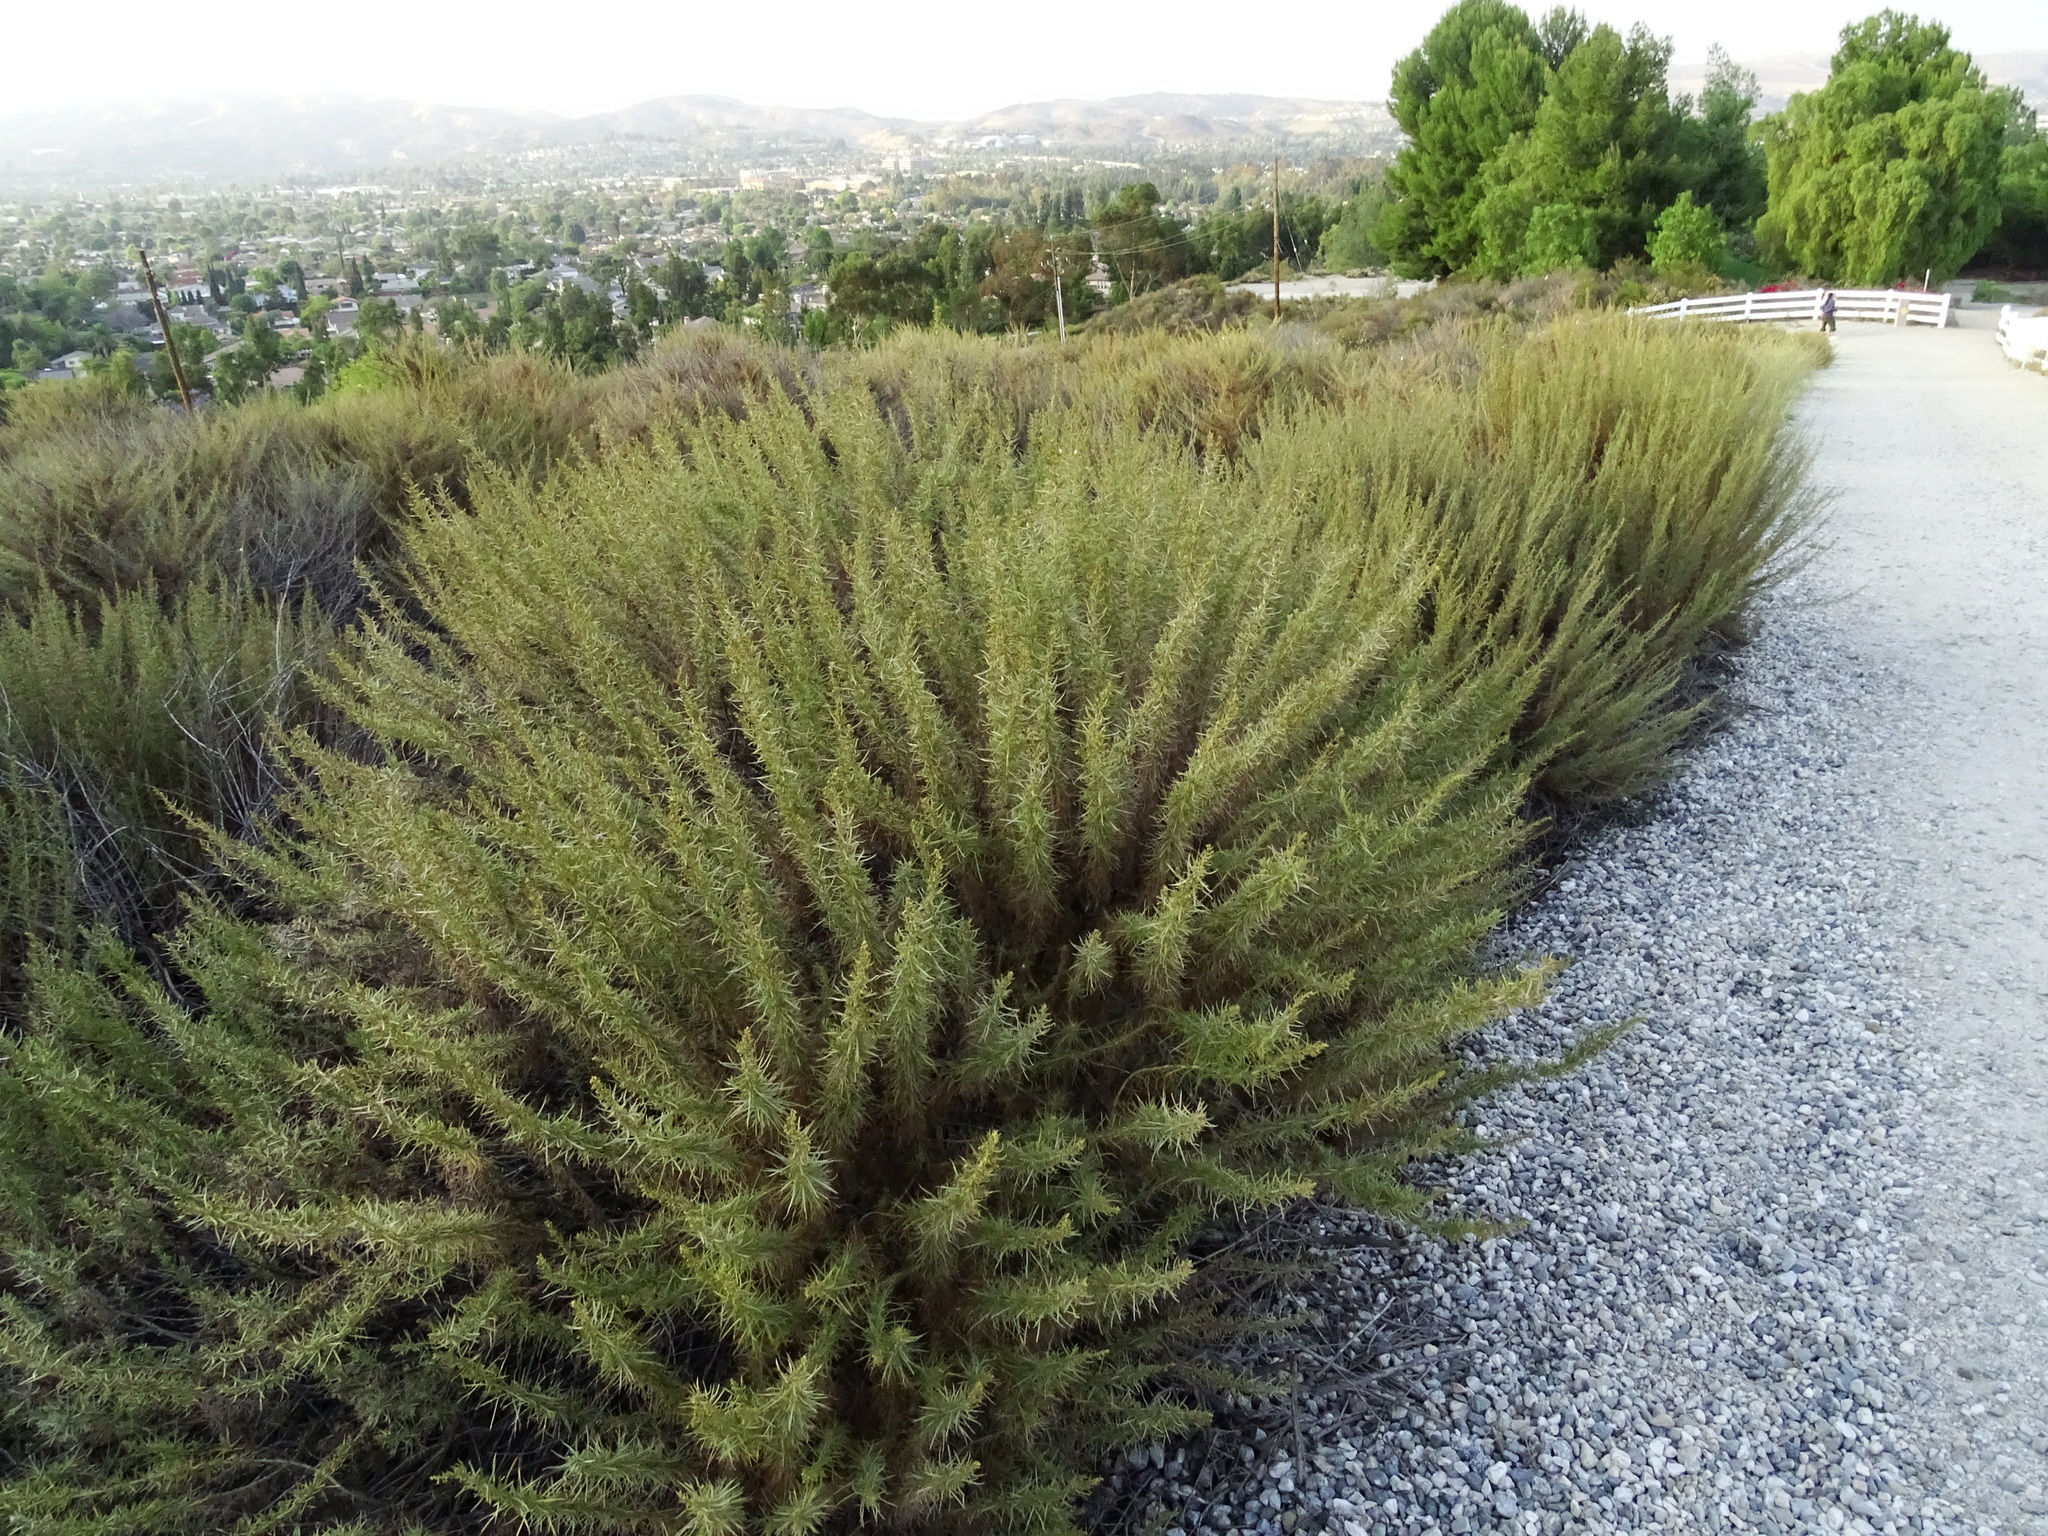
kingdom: Plantae
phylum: Tracheophyta
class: Magnoliopsida
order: Asterales
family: Asteraceae
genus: Artemisia
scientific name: Artemisia californica
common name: California sagebrush
